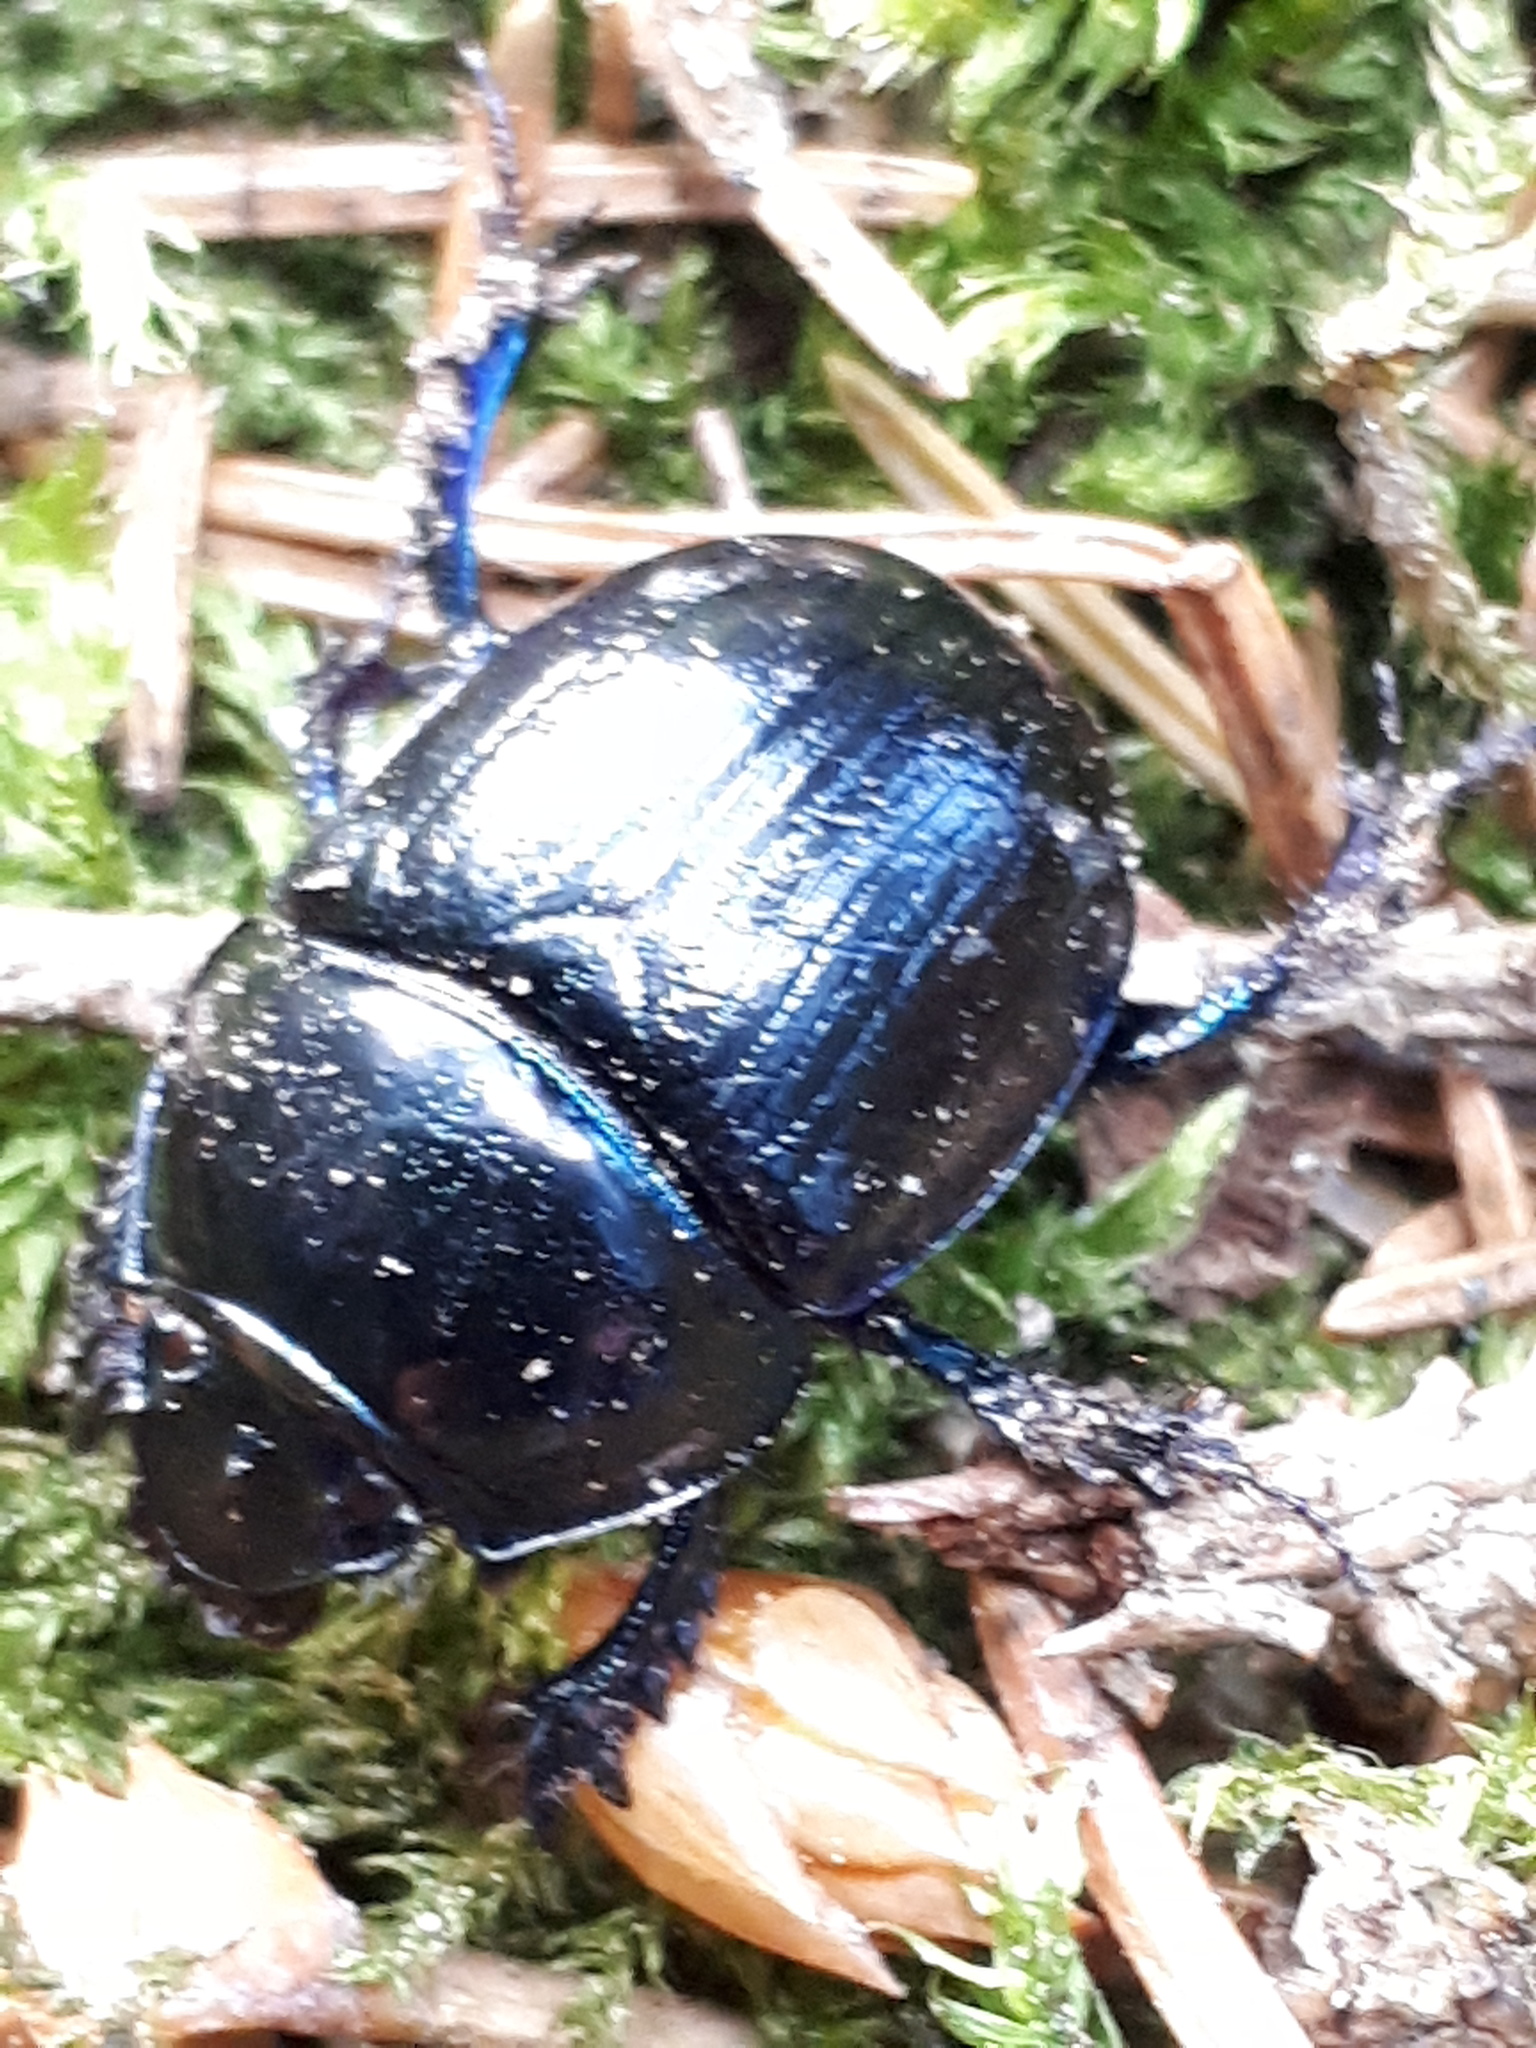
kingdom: Animalia
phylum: Arthropoda
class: Insecta
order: Coleoptera
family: Geotrupidae
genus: Anoplotrupes
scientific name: Anoplotrupes stercorosus
